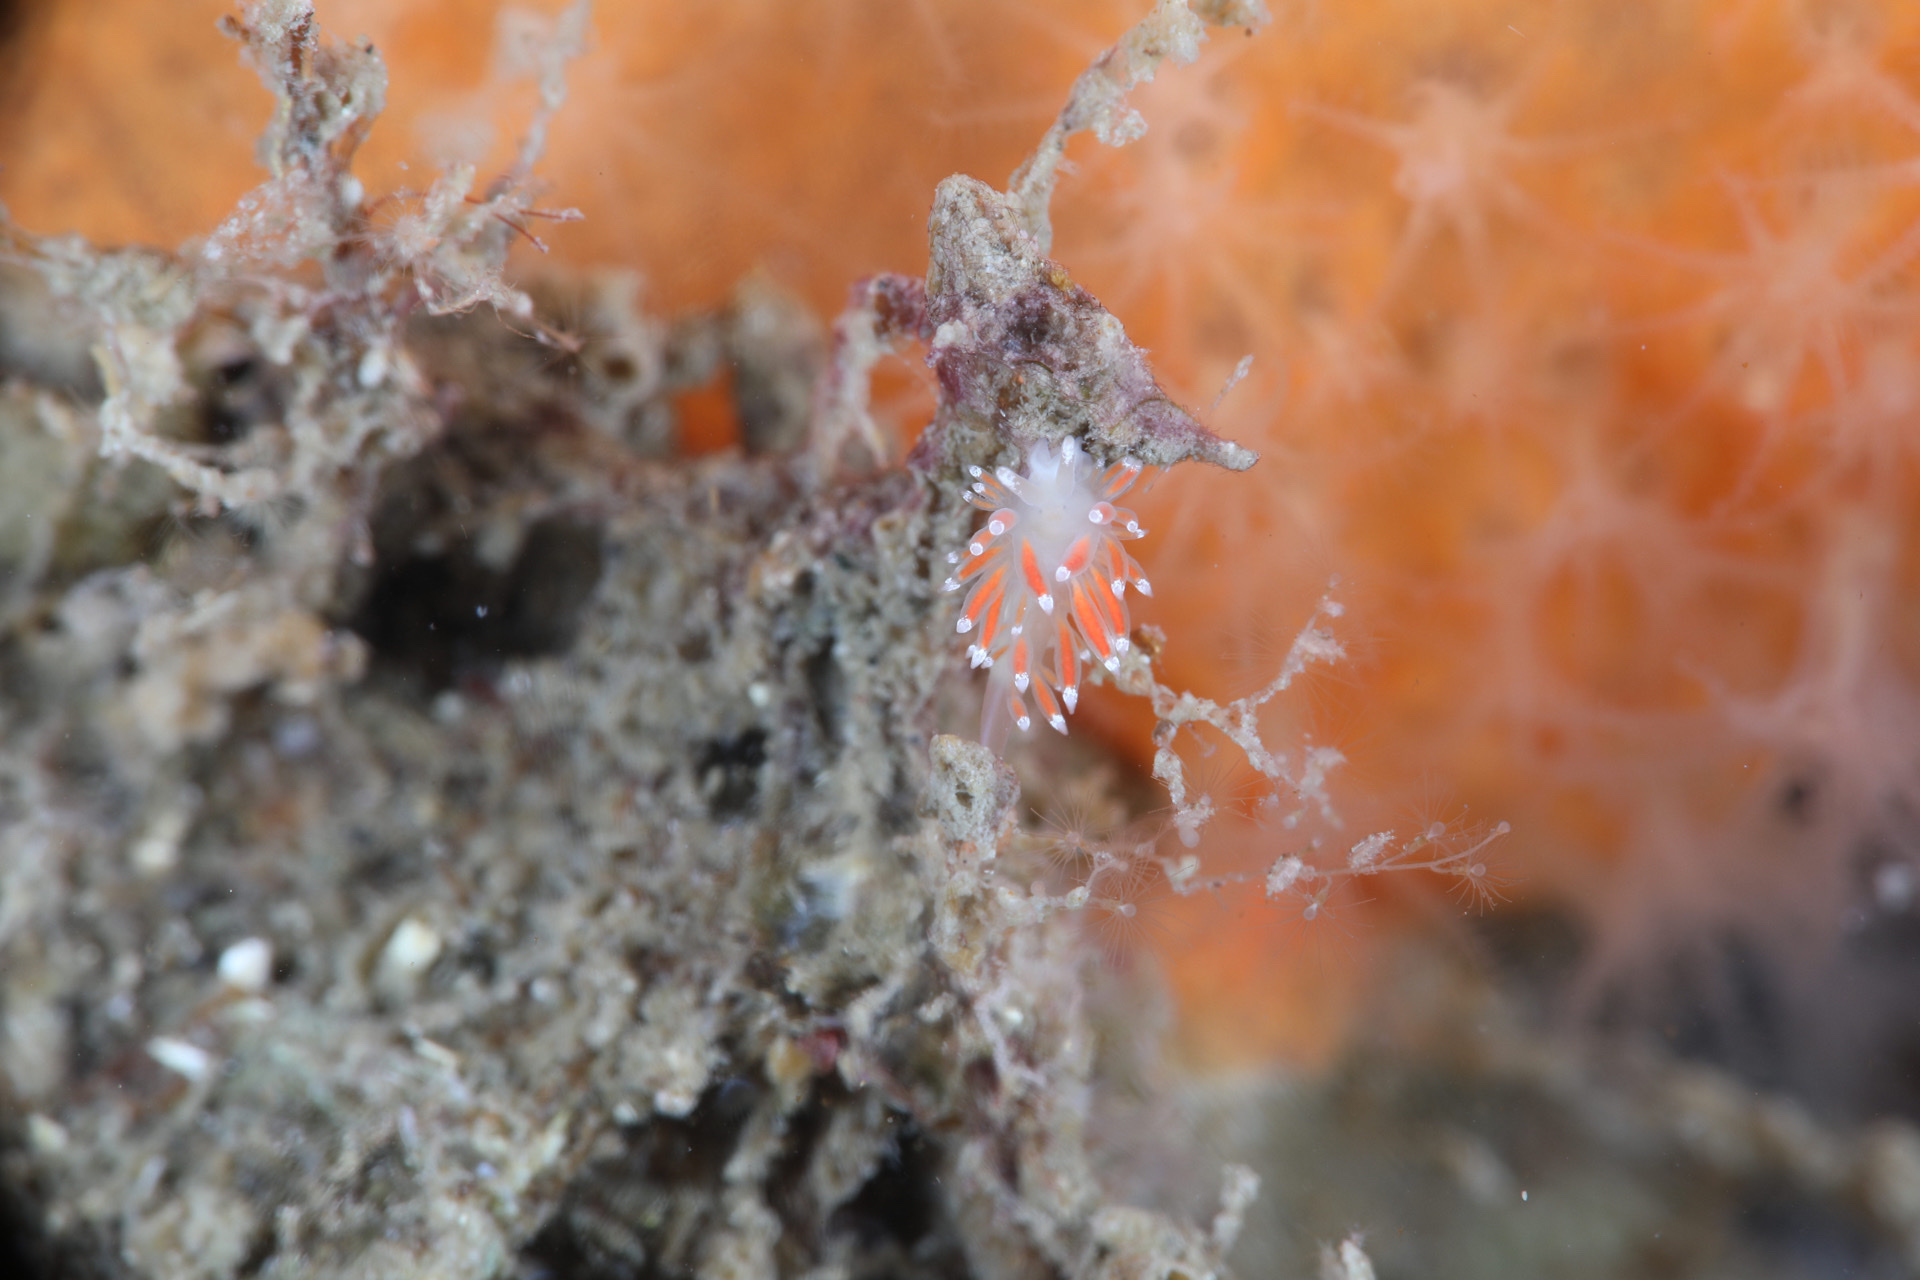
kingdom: Animalia
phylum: Mollusca
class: Gastropoda
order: Nudibranchia
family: Coryphellidae
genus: Coryphella
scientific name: Coryphella gracilis
